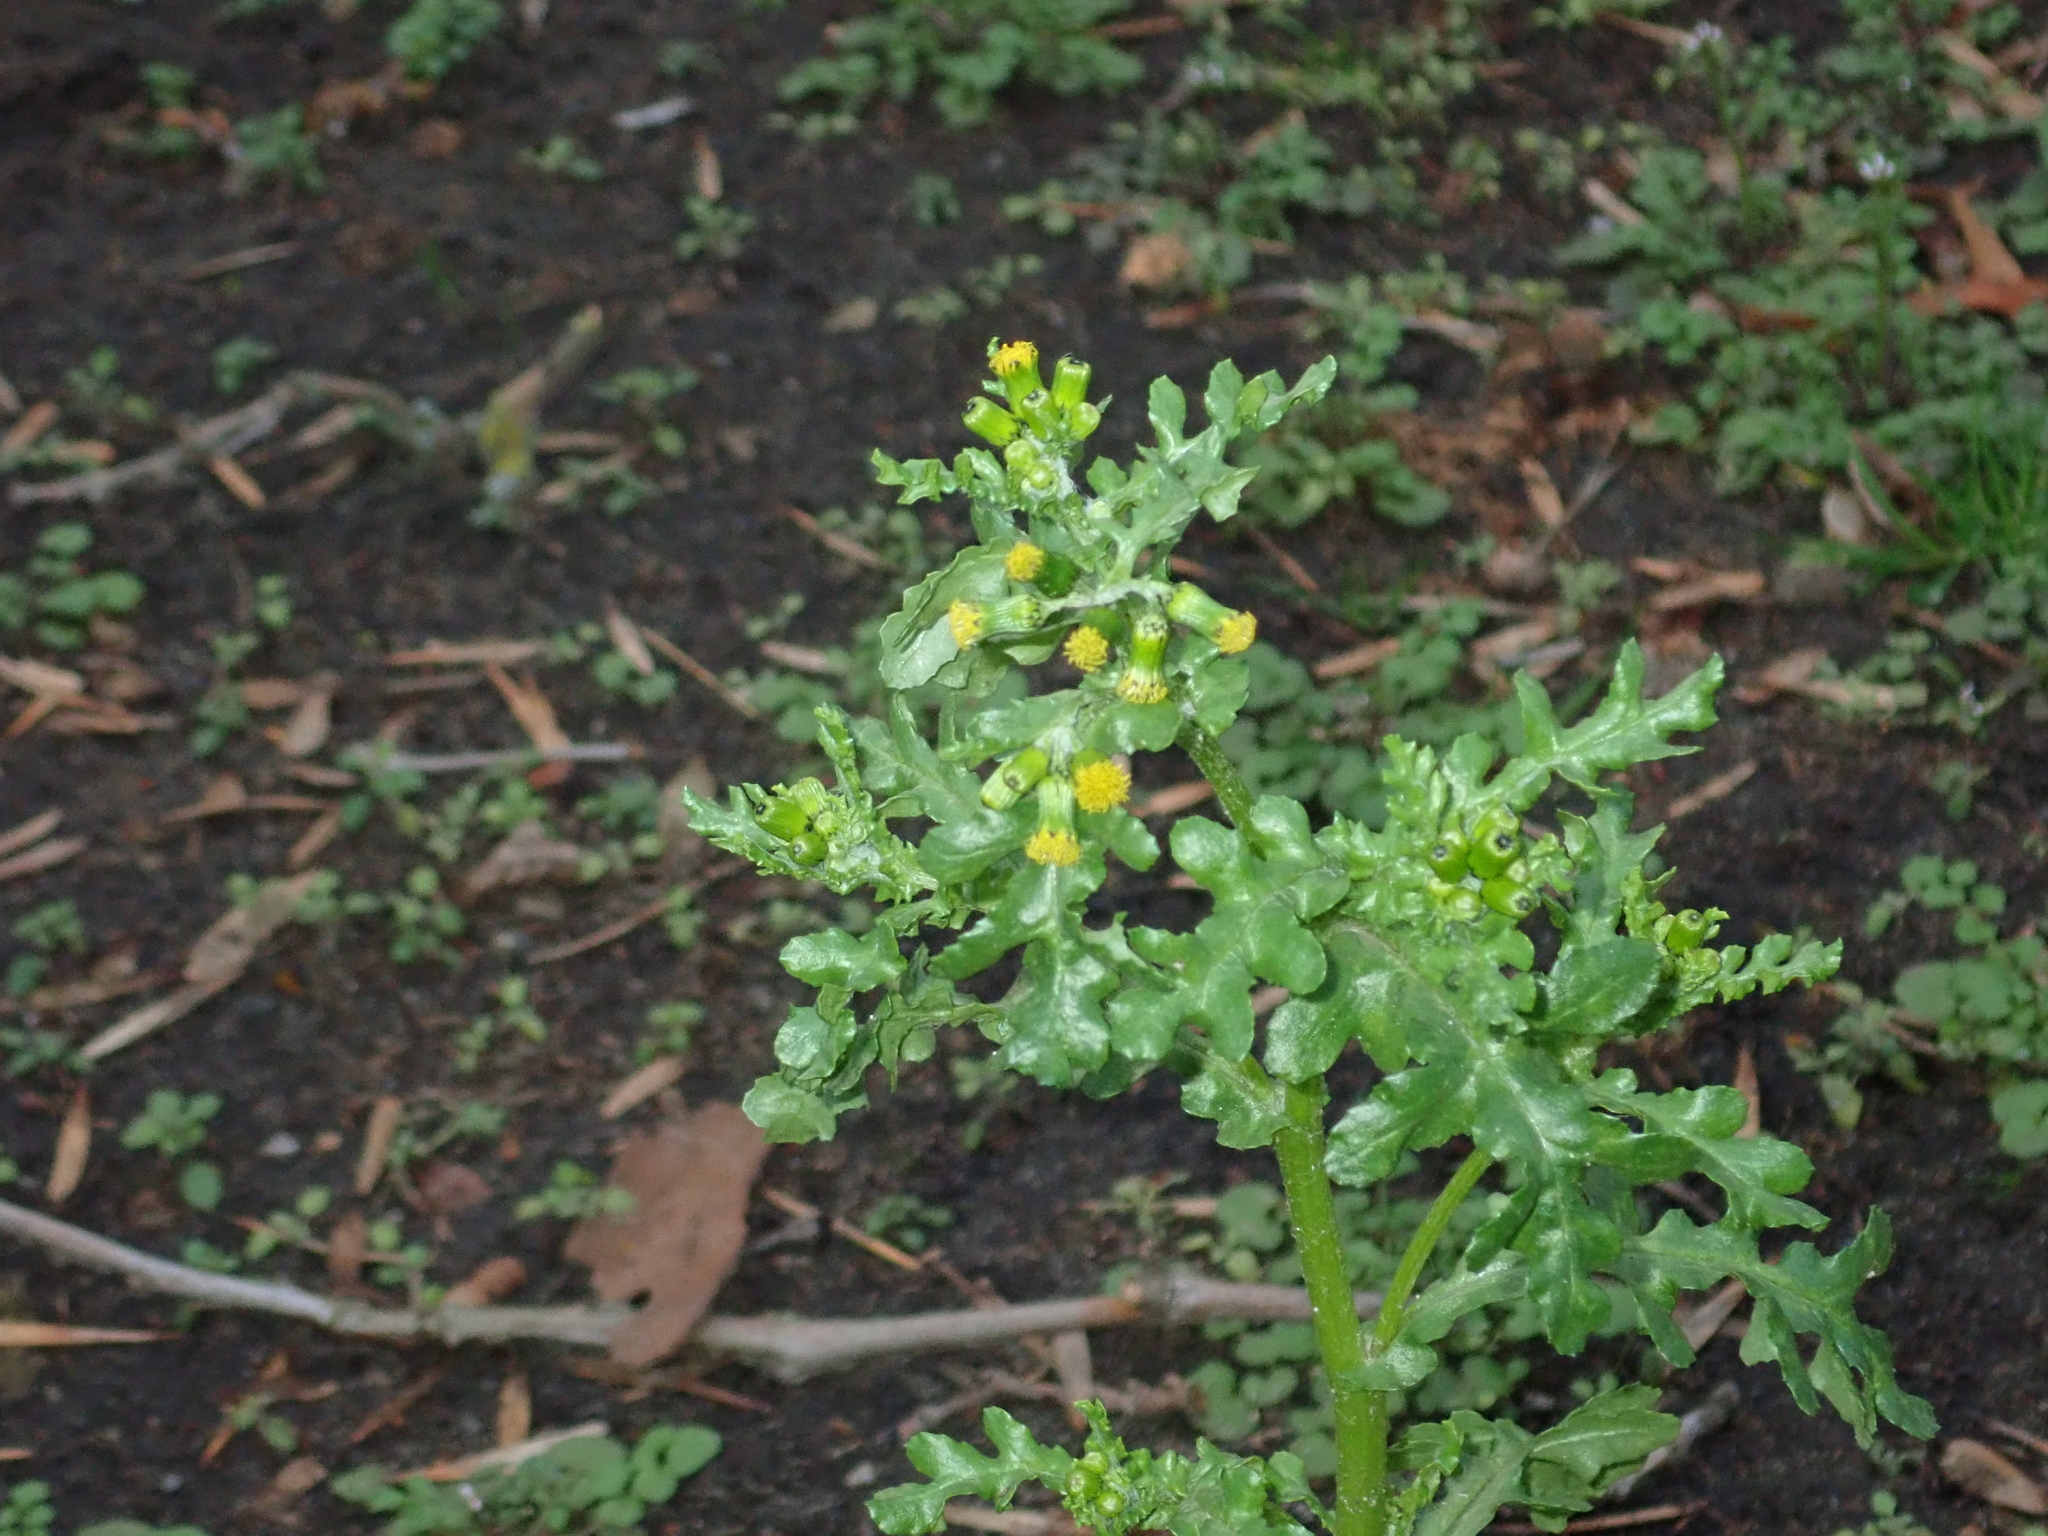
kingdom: Plantae
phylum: Tracheophyta
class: Magnoliopsida
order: Asterales
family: Asteraceae
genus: Senecio
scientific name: Senecio vulgaris
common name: Old-man-in-the-spring
